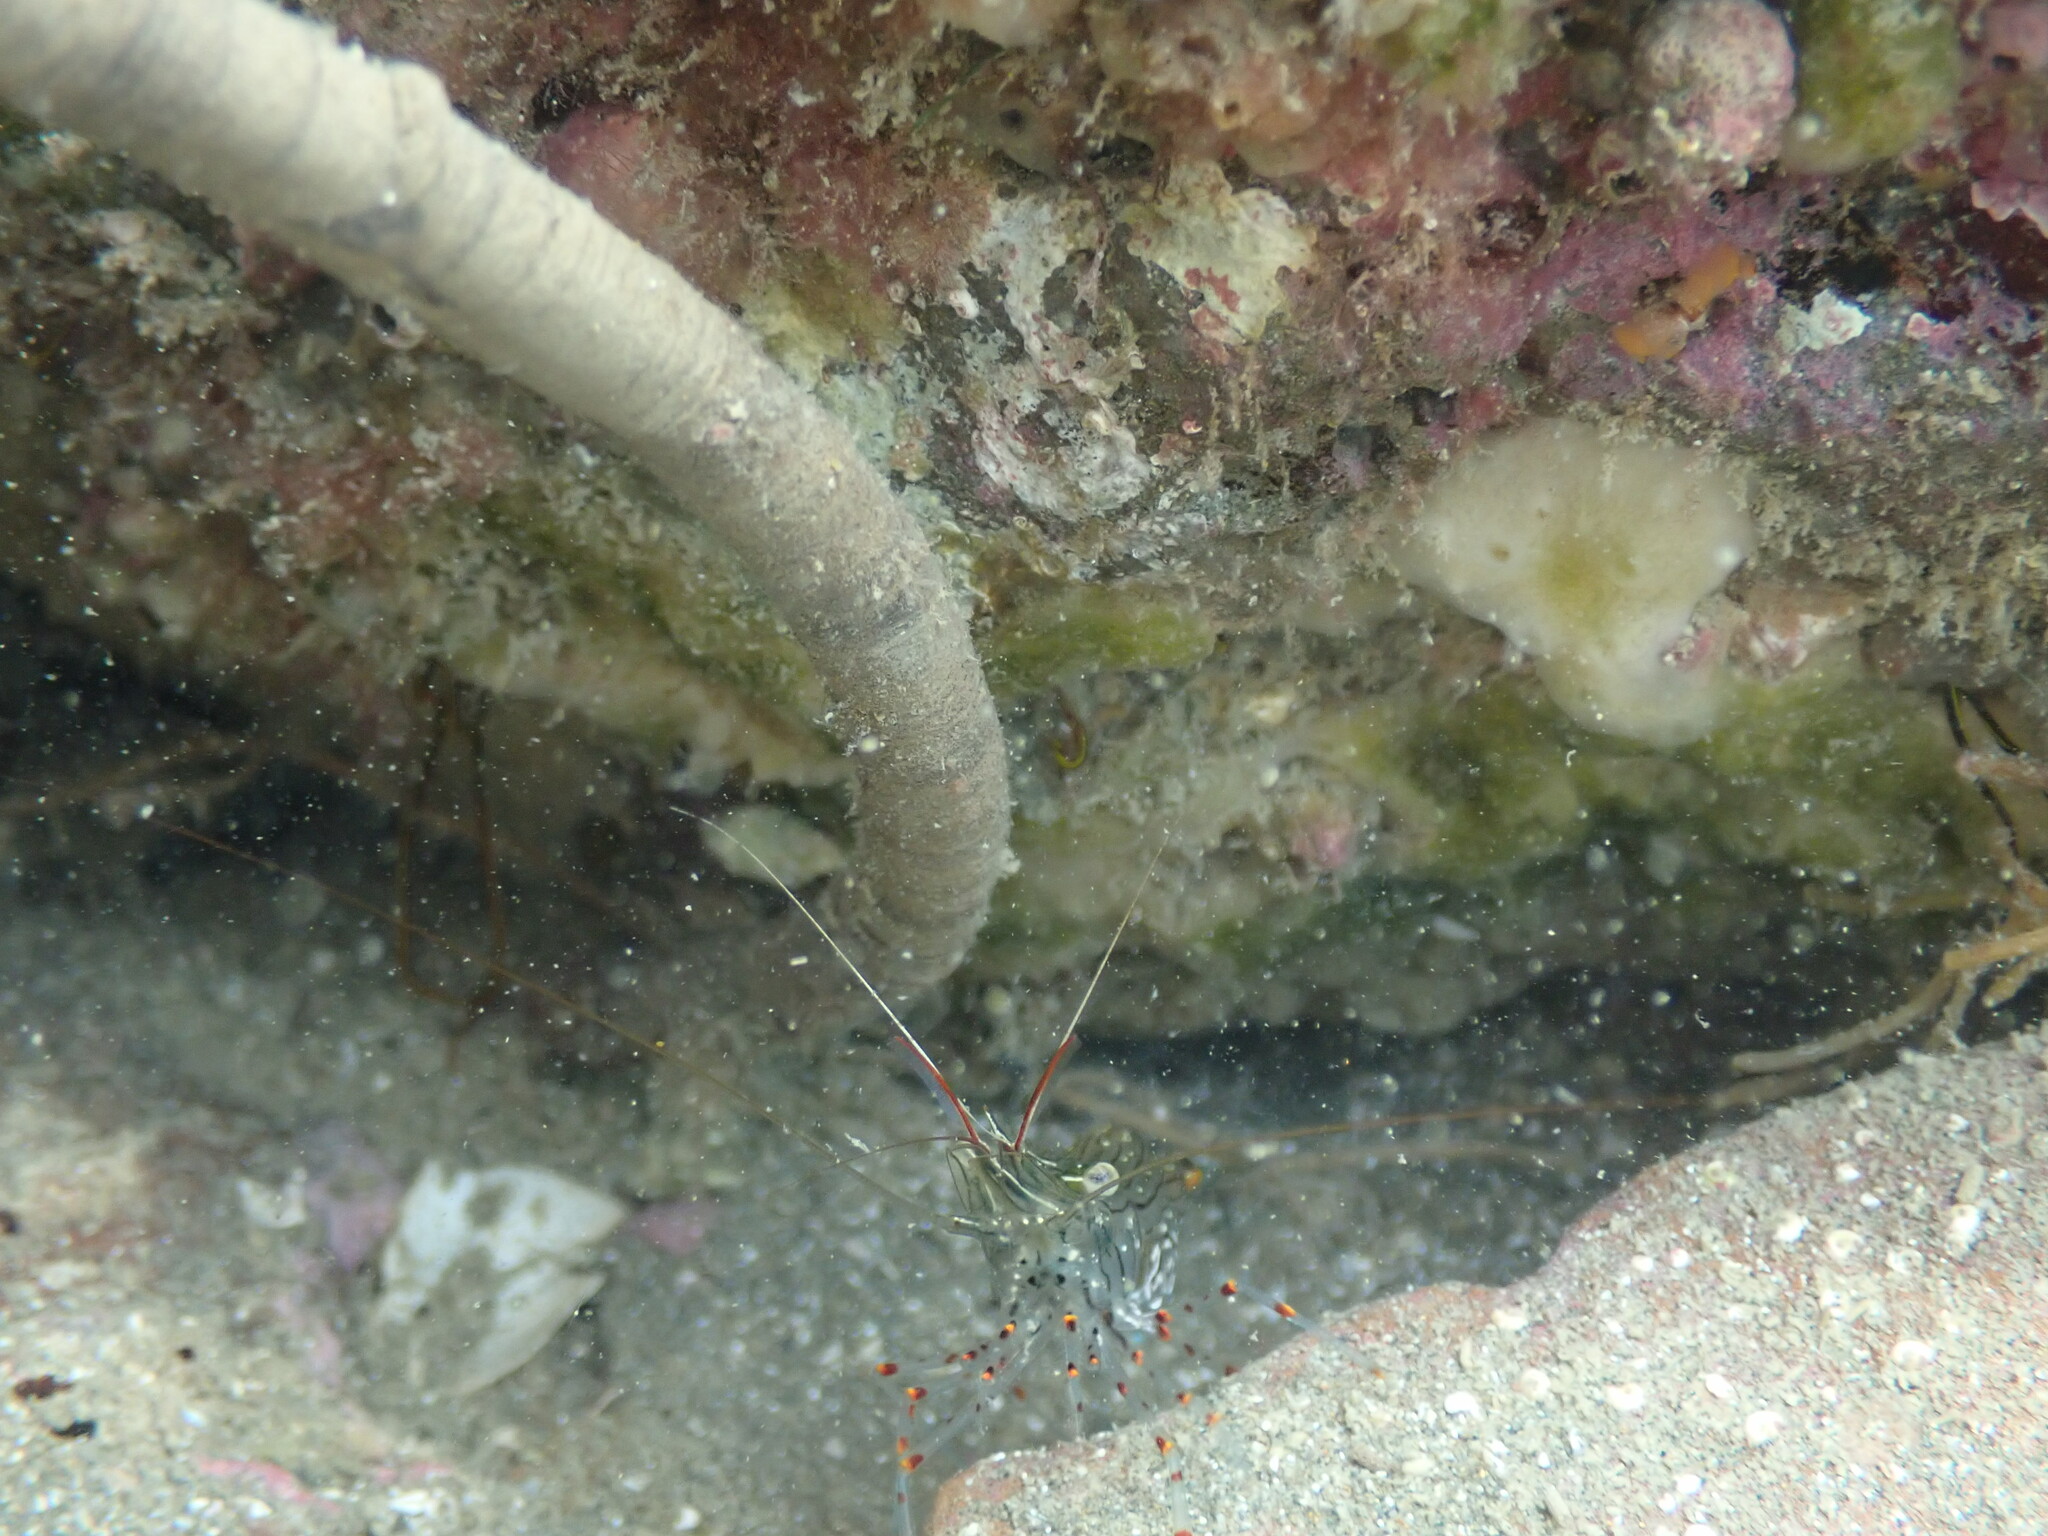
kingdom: Animalia
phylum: Arthropoda
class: Malacostraca
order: Decapoda
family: Palaemonidae
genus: Palaemon
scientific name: Palaemon affinis
